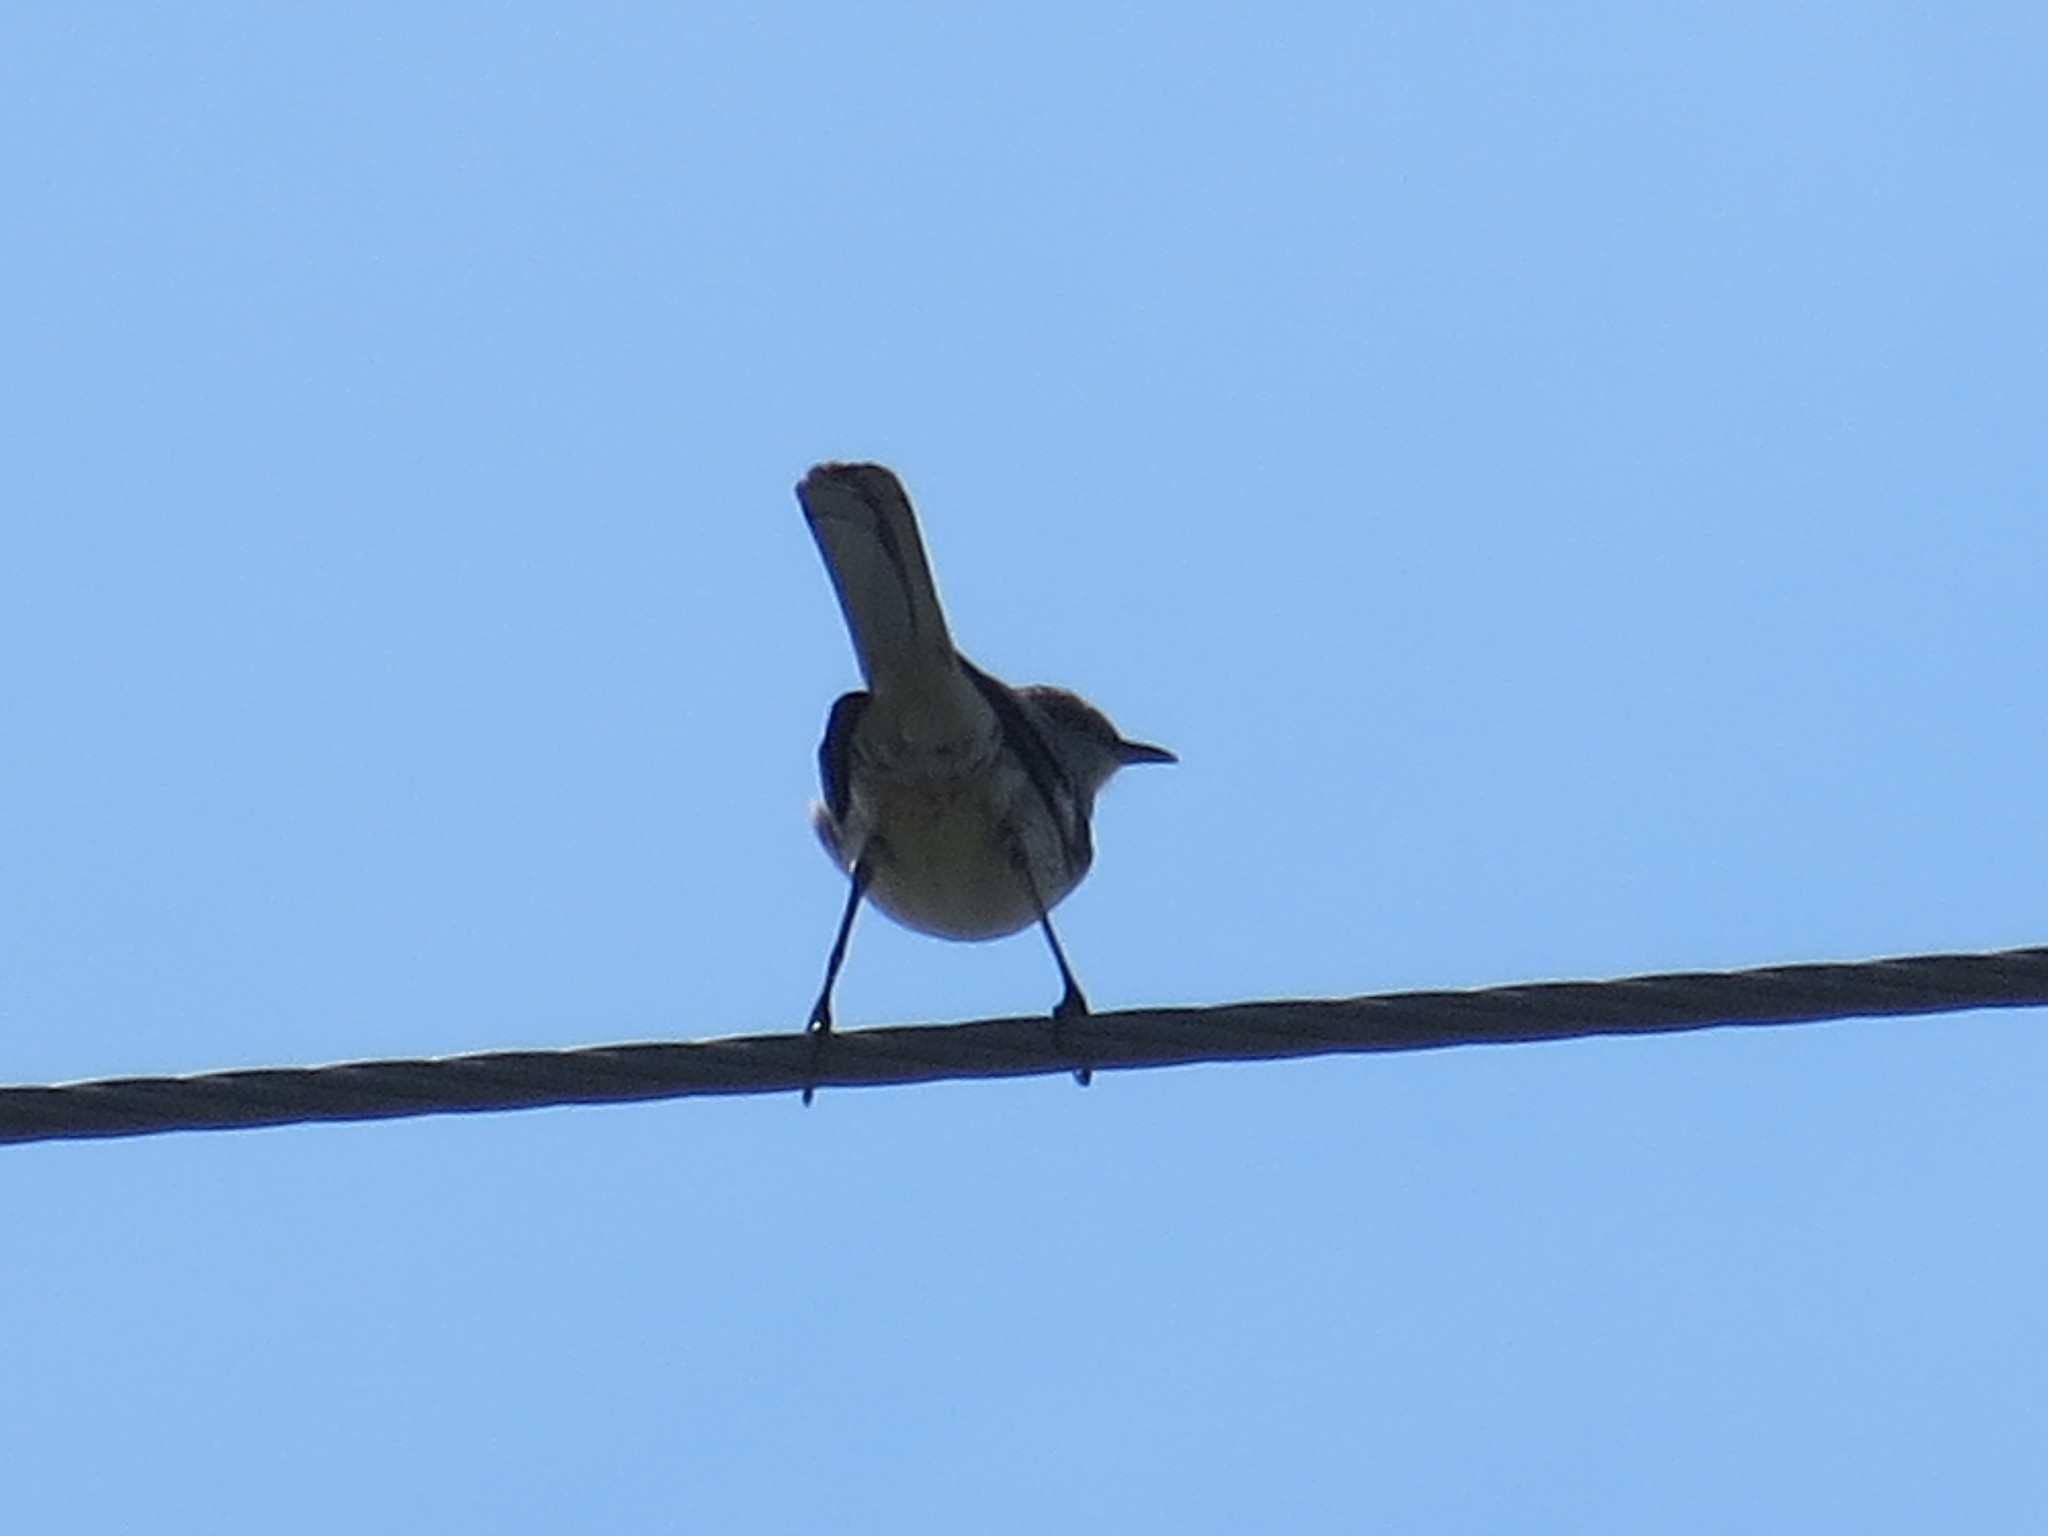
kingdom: Animalia
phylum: Chordata
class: Aves
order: Passeriformes
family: Mimidae
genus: Mimus
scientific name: Mimus polyglottos
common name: Northern mockingbird
